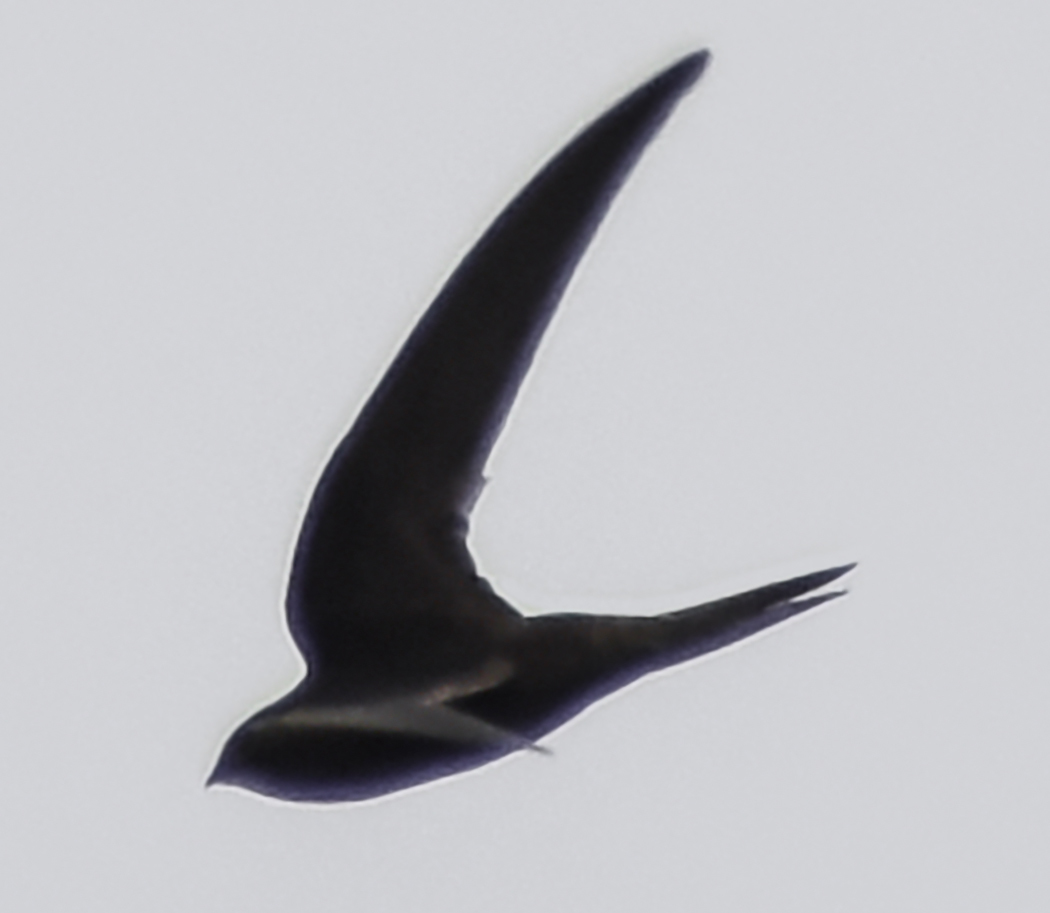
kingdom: Animalia
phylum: Chordata
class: Aves
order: Apodiformes
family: Apodidae
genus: Apus
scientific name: Apus apus
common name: Common swift
